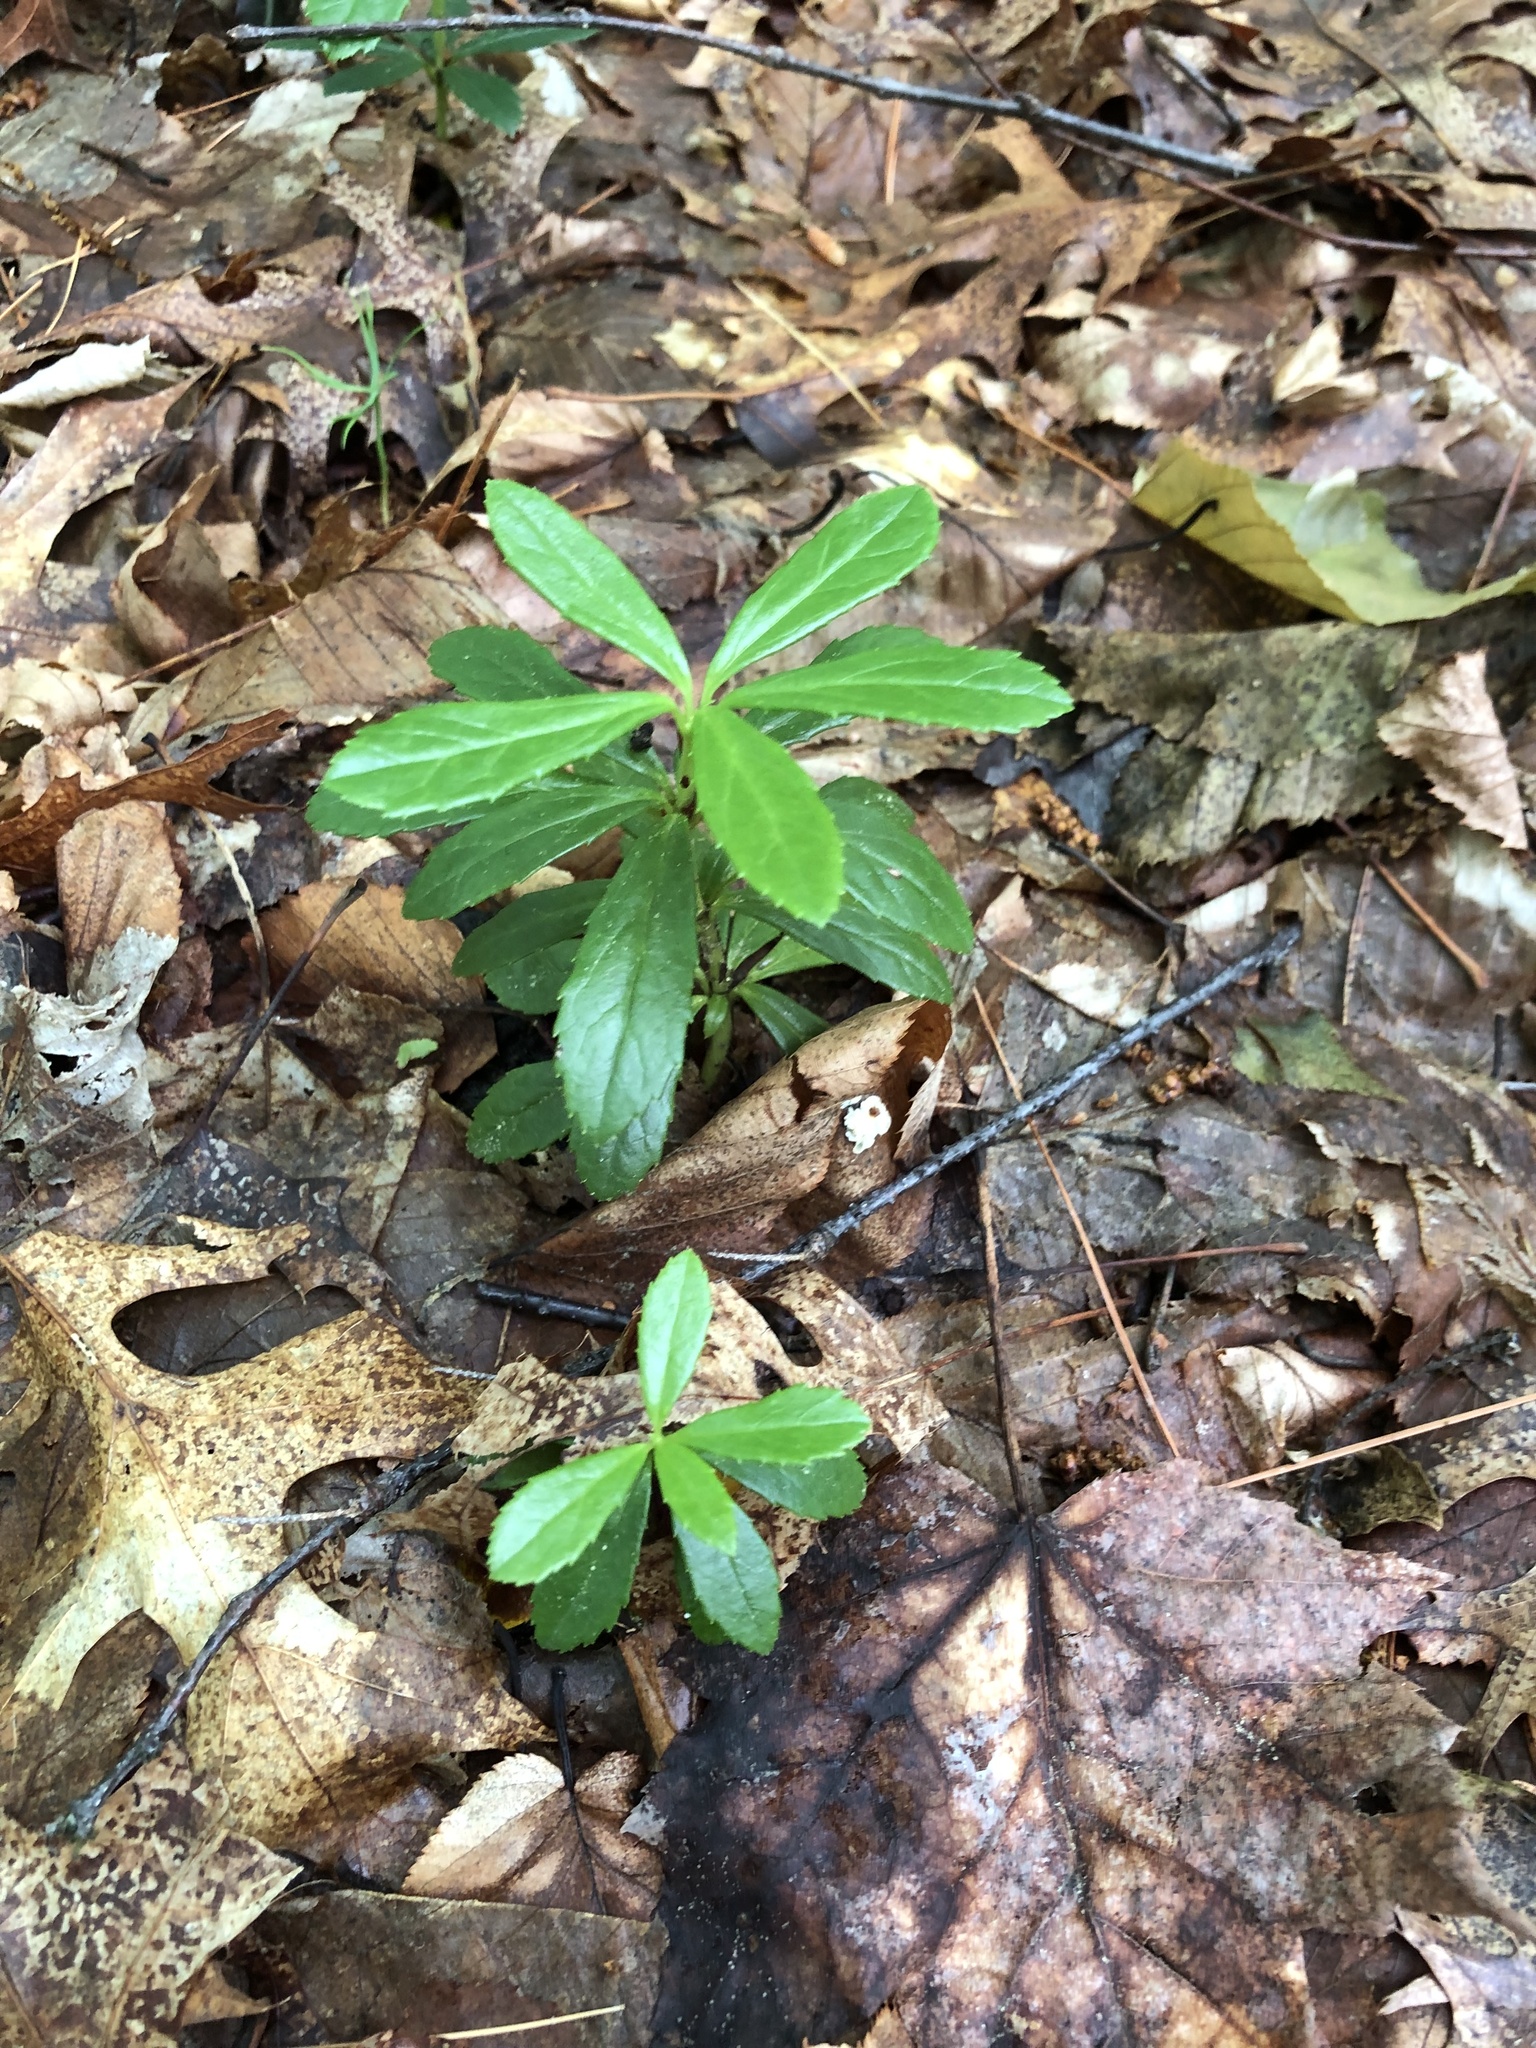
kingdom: Plantae
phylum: Tracheophyta
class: Magnoliopsida
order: Ericales
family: Ericaceae
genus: Chimaphila
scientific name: Chimaphila umbellata
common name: Pipsissewa
